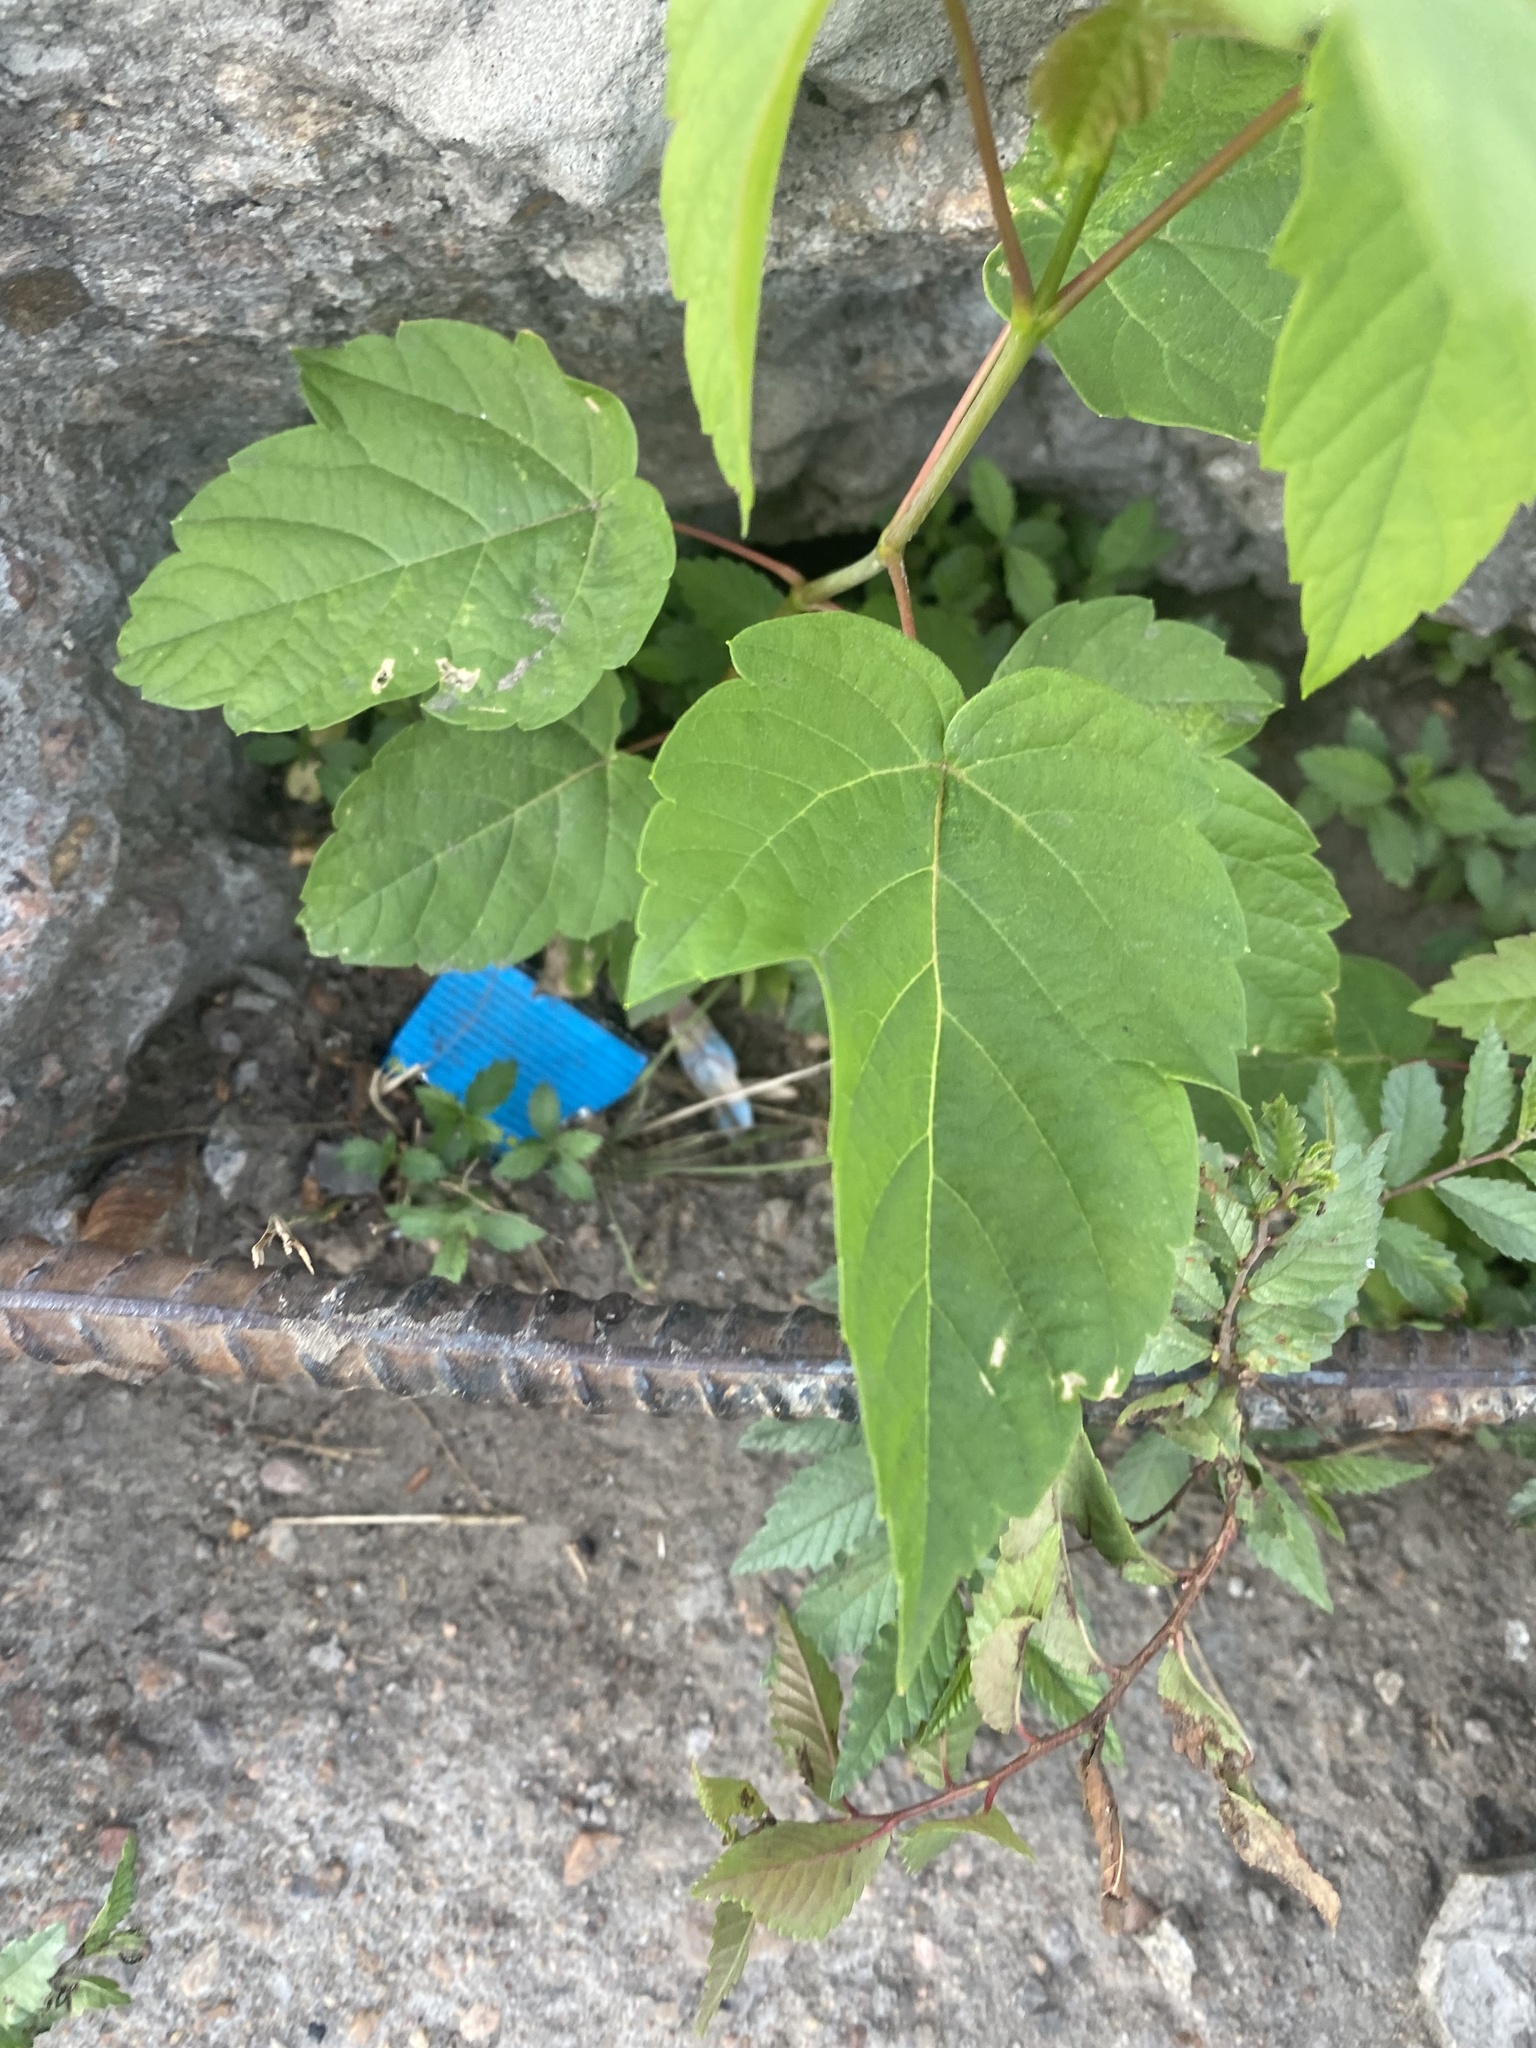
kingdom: Plantae
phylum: Tracheophyta
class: Magnoliopsida
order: Sapindales
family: Sapindaceae
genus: Acer
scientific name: Acer negundo
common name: Ashleaf maple
